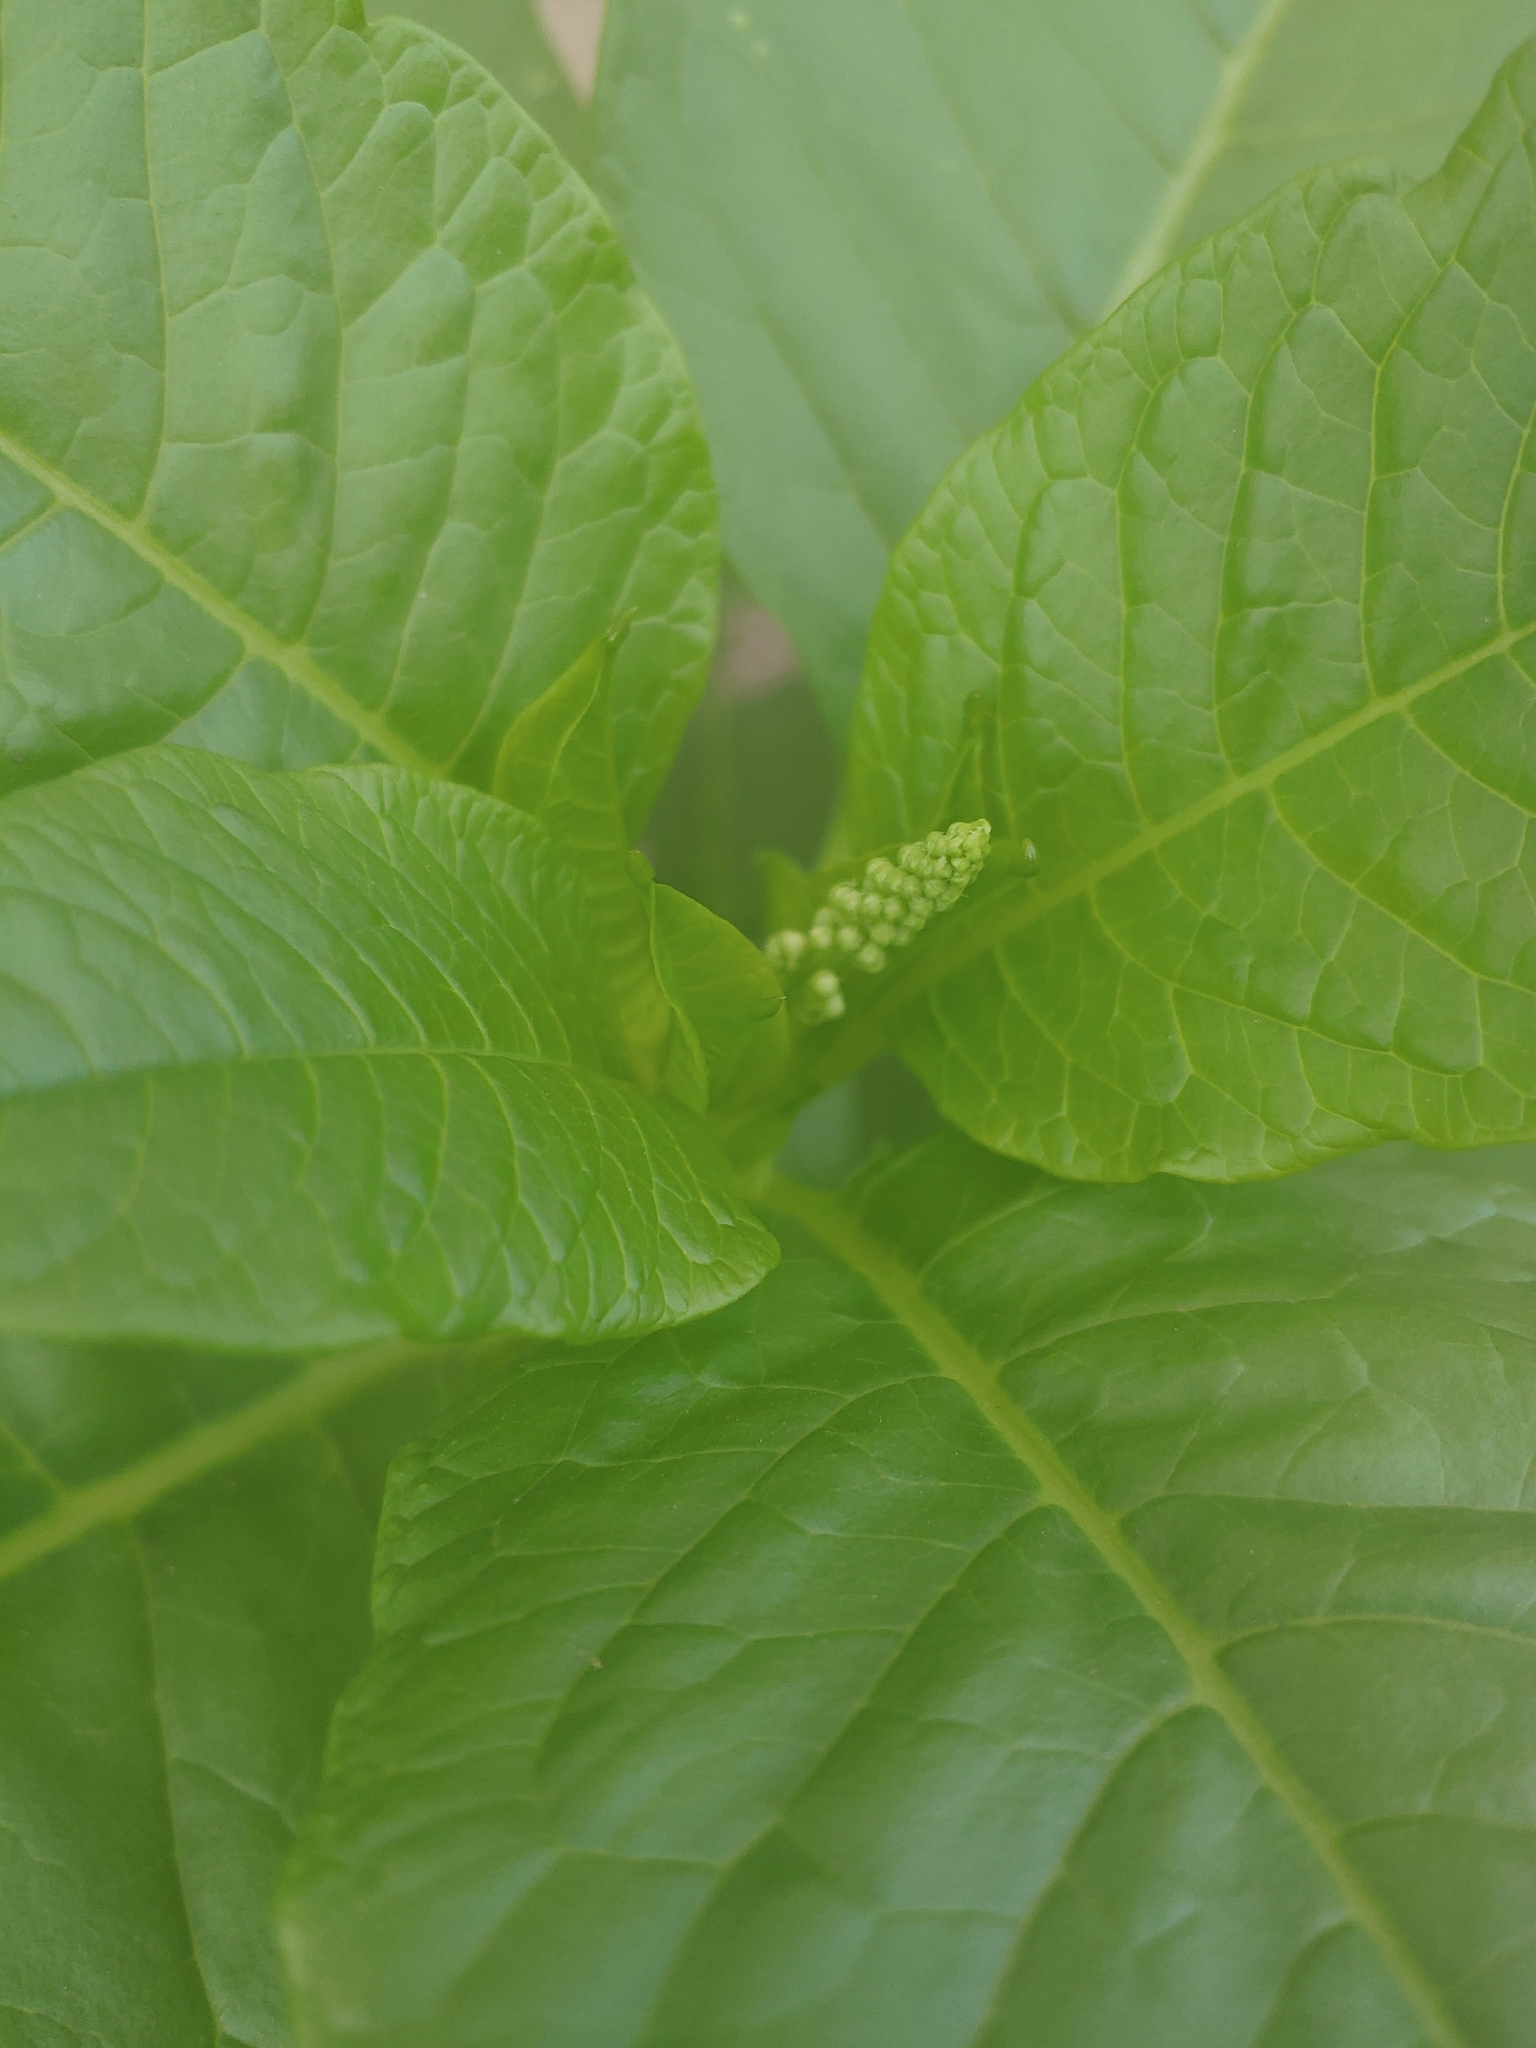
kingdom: Plantae
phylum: Tracheophyta
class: Magnoliopsida
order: Caryophyllales
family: Phytolaccaceae
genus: Phytolacca
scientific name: Phytolacca americana
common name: American pokeweed
